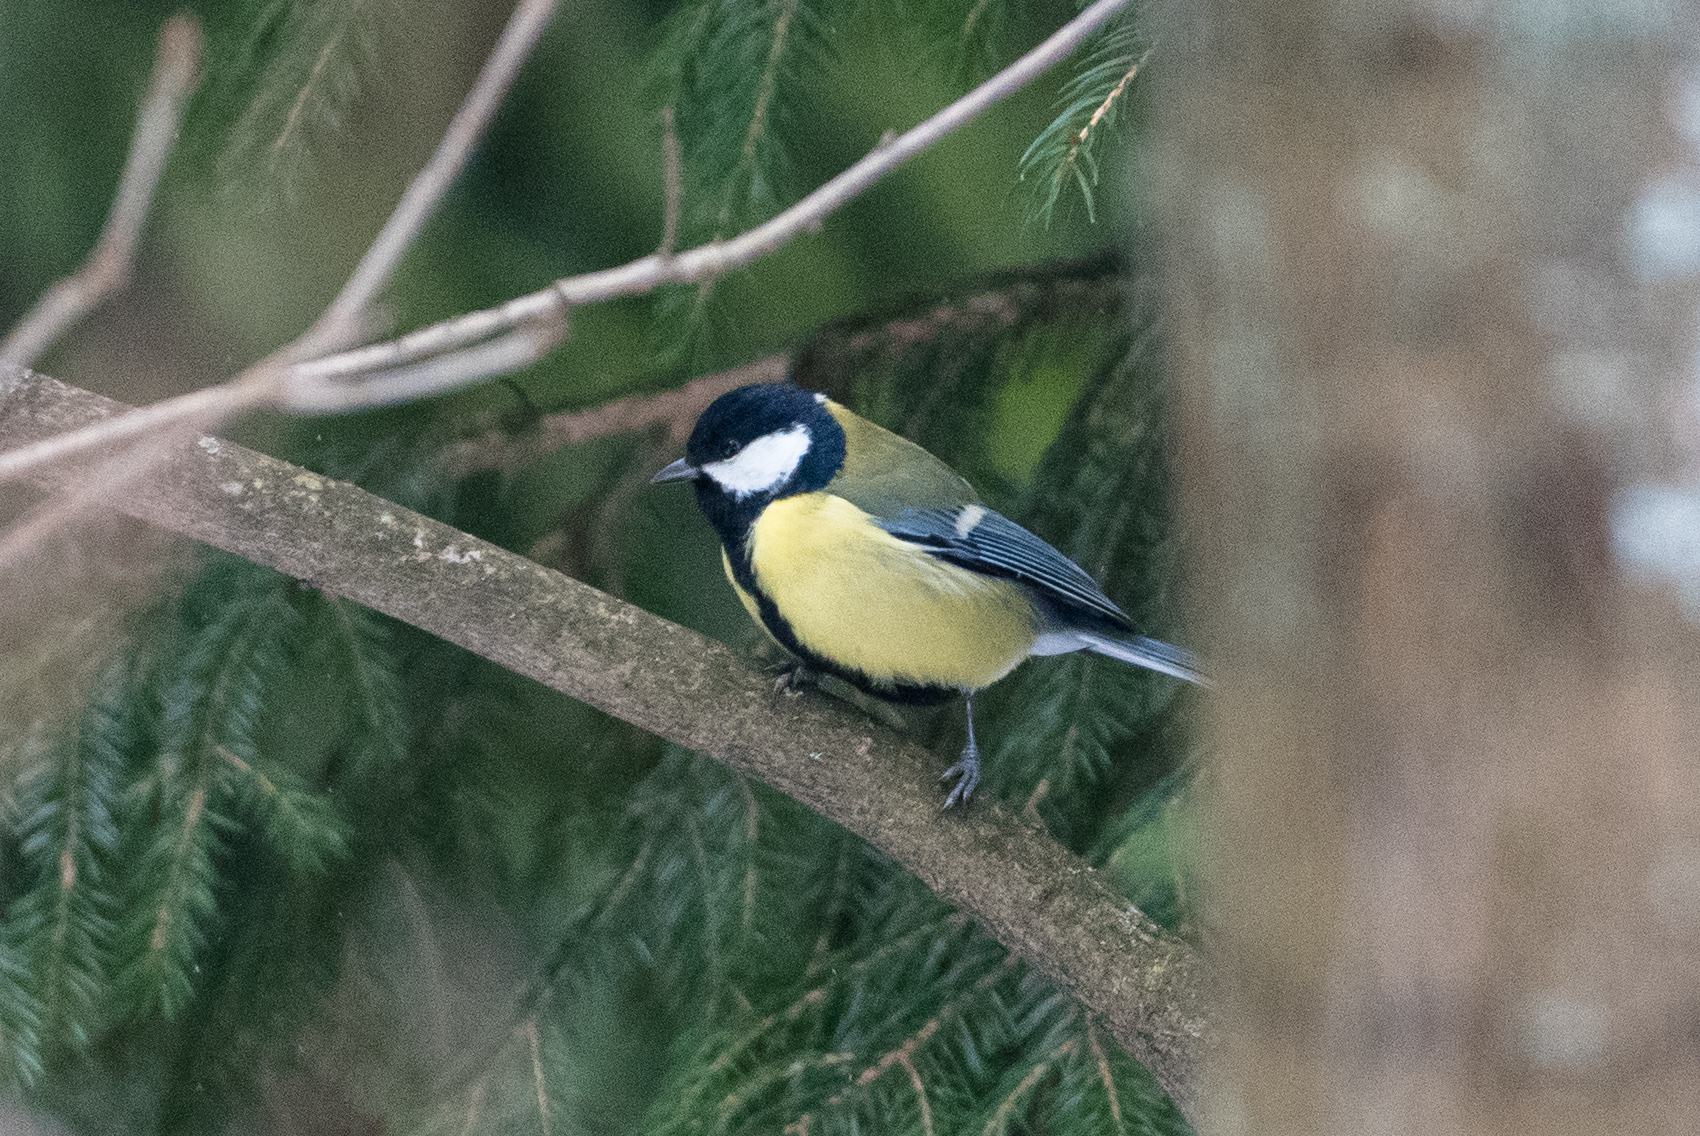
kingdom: Animalia
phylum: Chordata
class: Aves
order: Passeriformes
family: Paridae
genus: Parus
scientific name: Parus major
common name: Great tit
